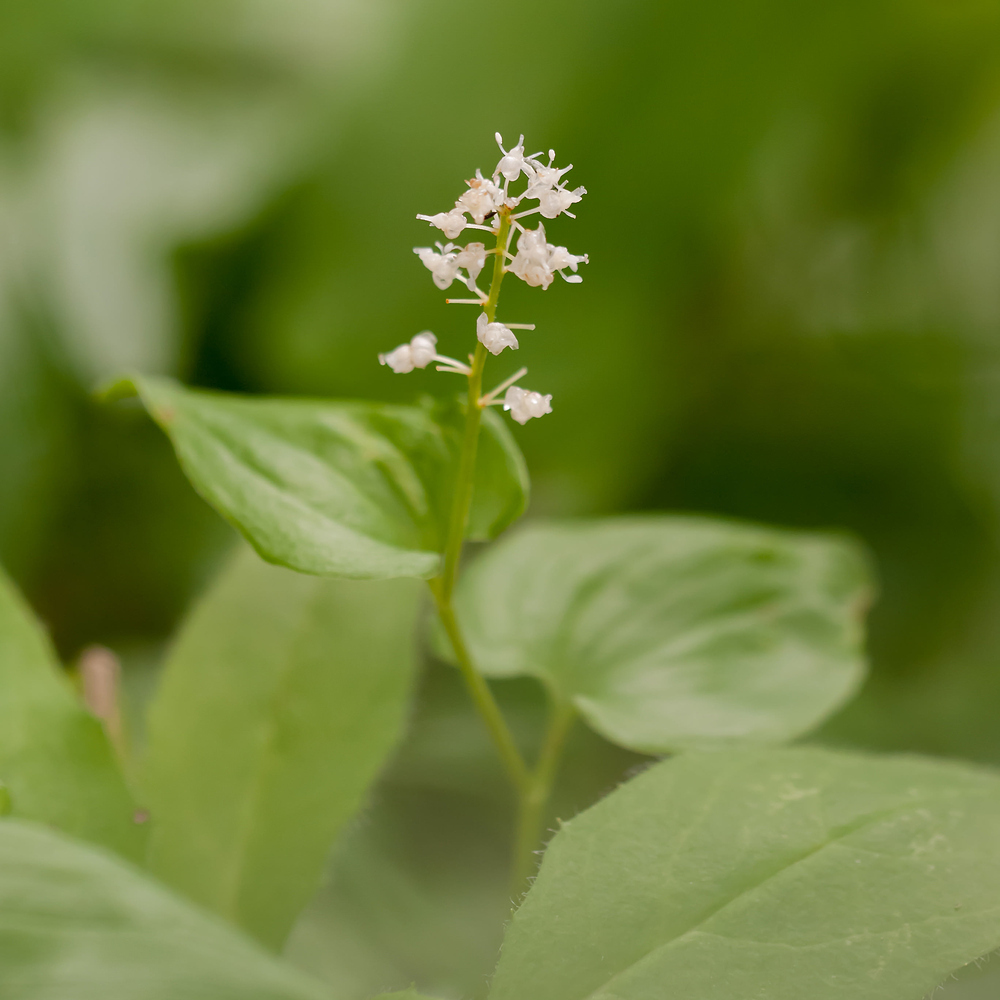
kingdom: Plantae
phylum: Tracheophyta
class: Liliopsida
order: Asparagales
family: Asparagaceae
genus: Maianthemum
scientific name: Maianthemum bifolium
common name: May lily
